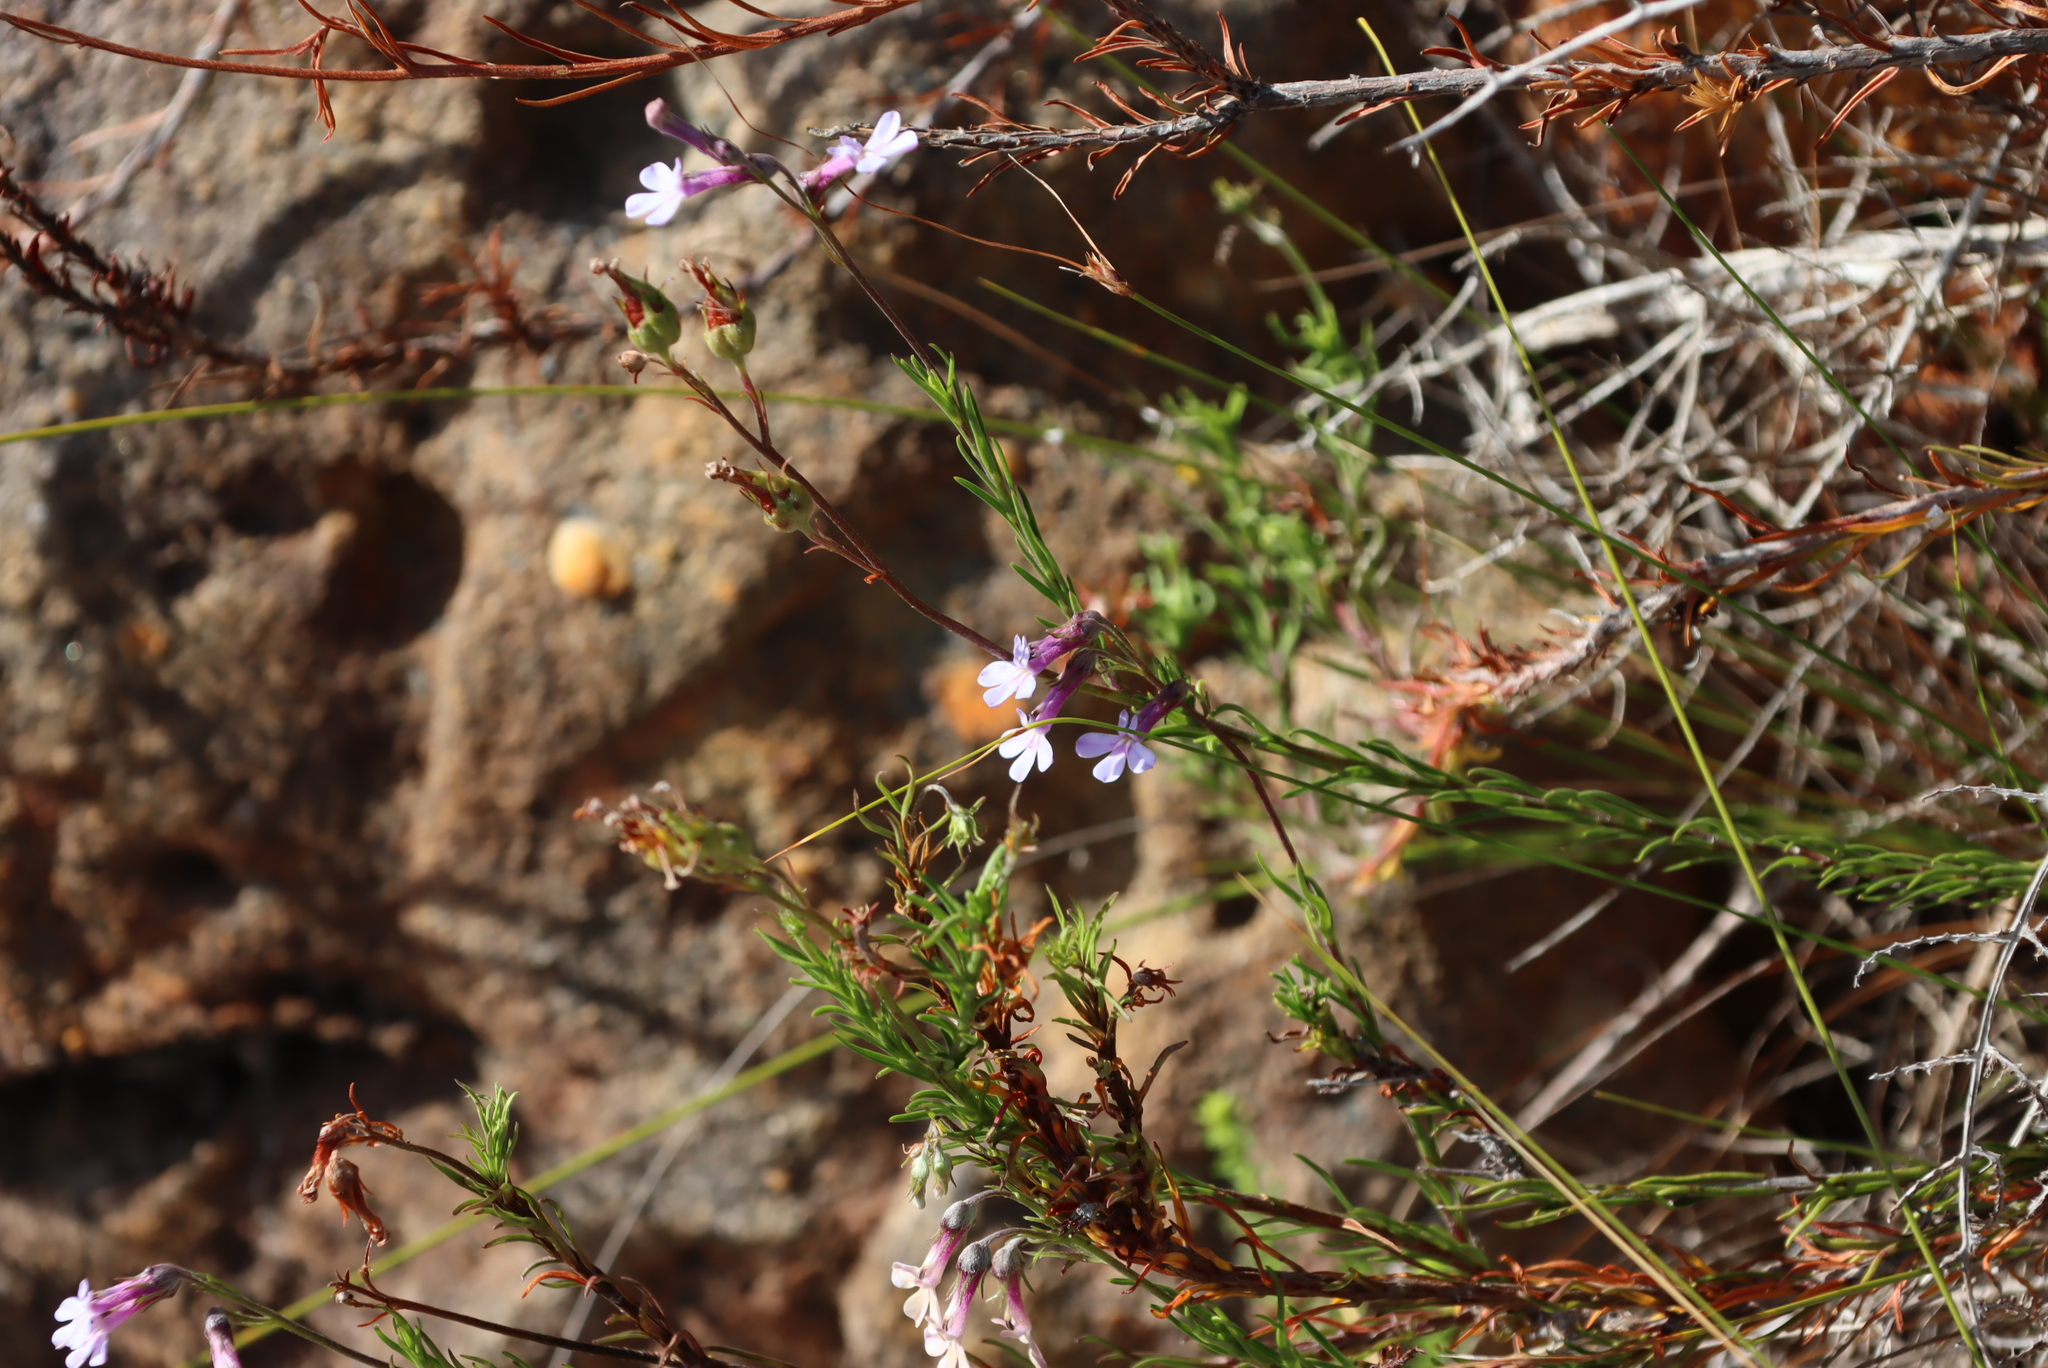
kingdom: Plantae
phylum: Tracheophyta
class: Magnoliopsida
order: Asterales
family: Campanulaceae
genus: Lobelia
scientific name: Lobelia pinifolia
